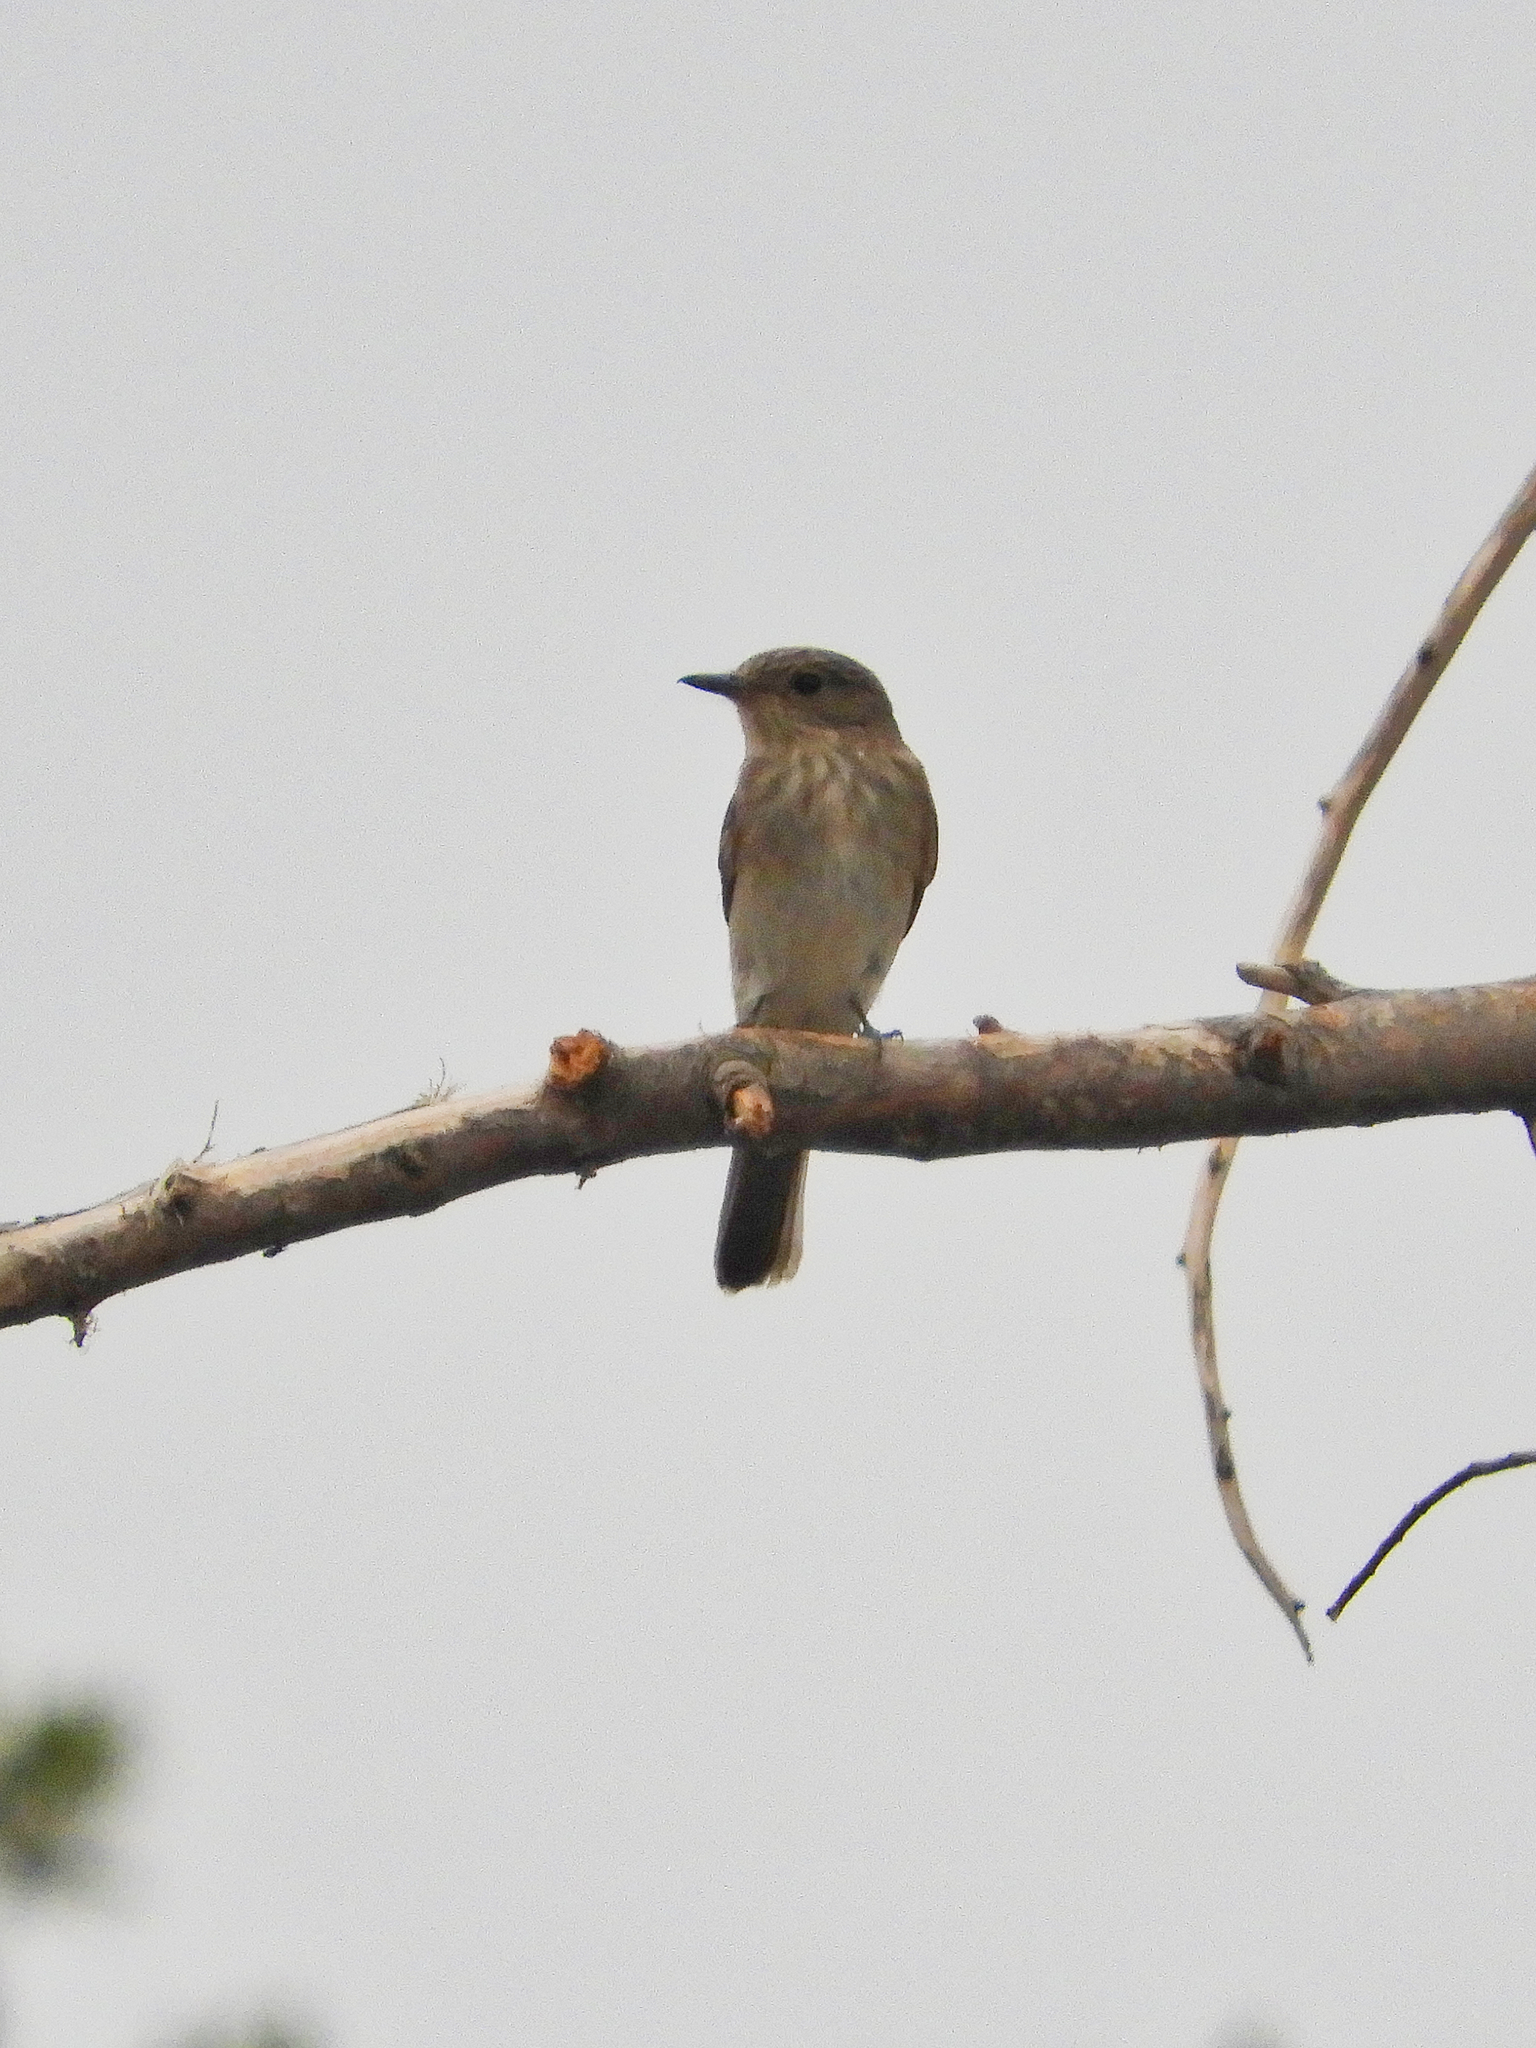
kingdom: Animalia
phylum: Chordata
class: Aves
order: Passeriformes
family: Muscicapidae
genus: Muscicapa
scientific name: Muscicapa striata
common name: Spotted flycatcher
